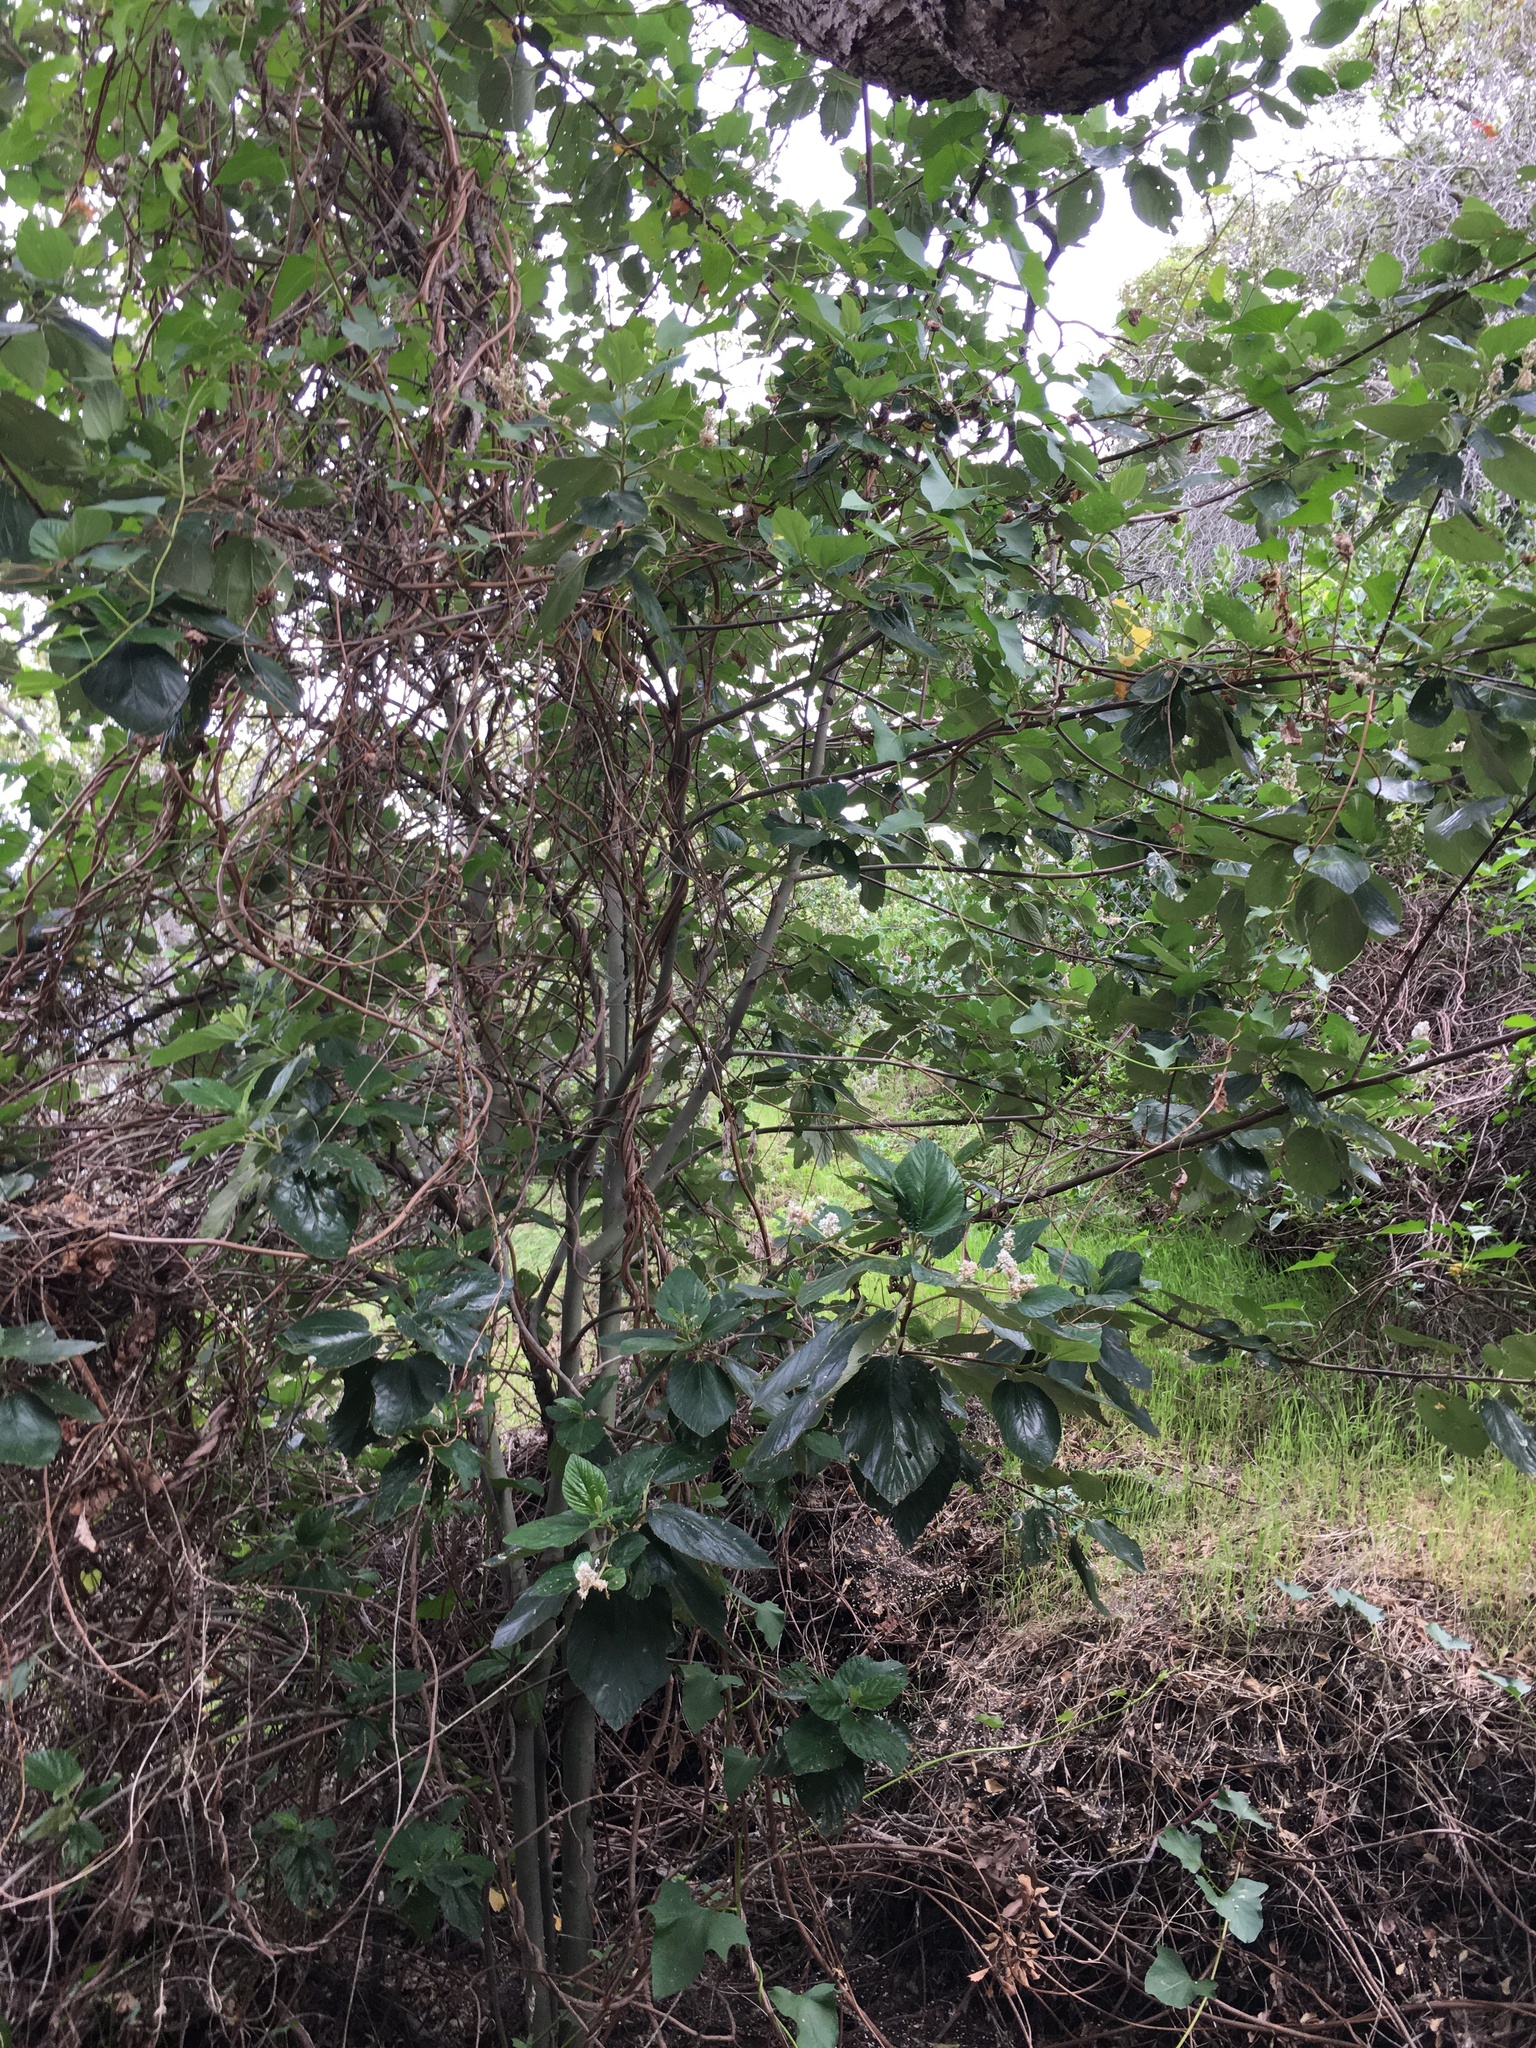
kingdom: Plantae
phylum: Tracheophyta
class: Magnoliopsida
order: Rosales
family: Rhamnaceae
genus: Ceanothus
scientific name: Ceanothus arboreus
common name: Catalina mountain-lilac
